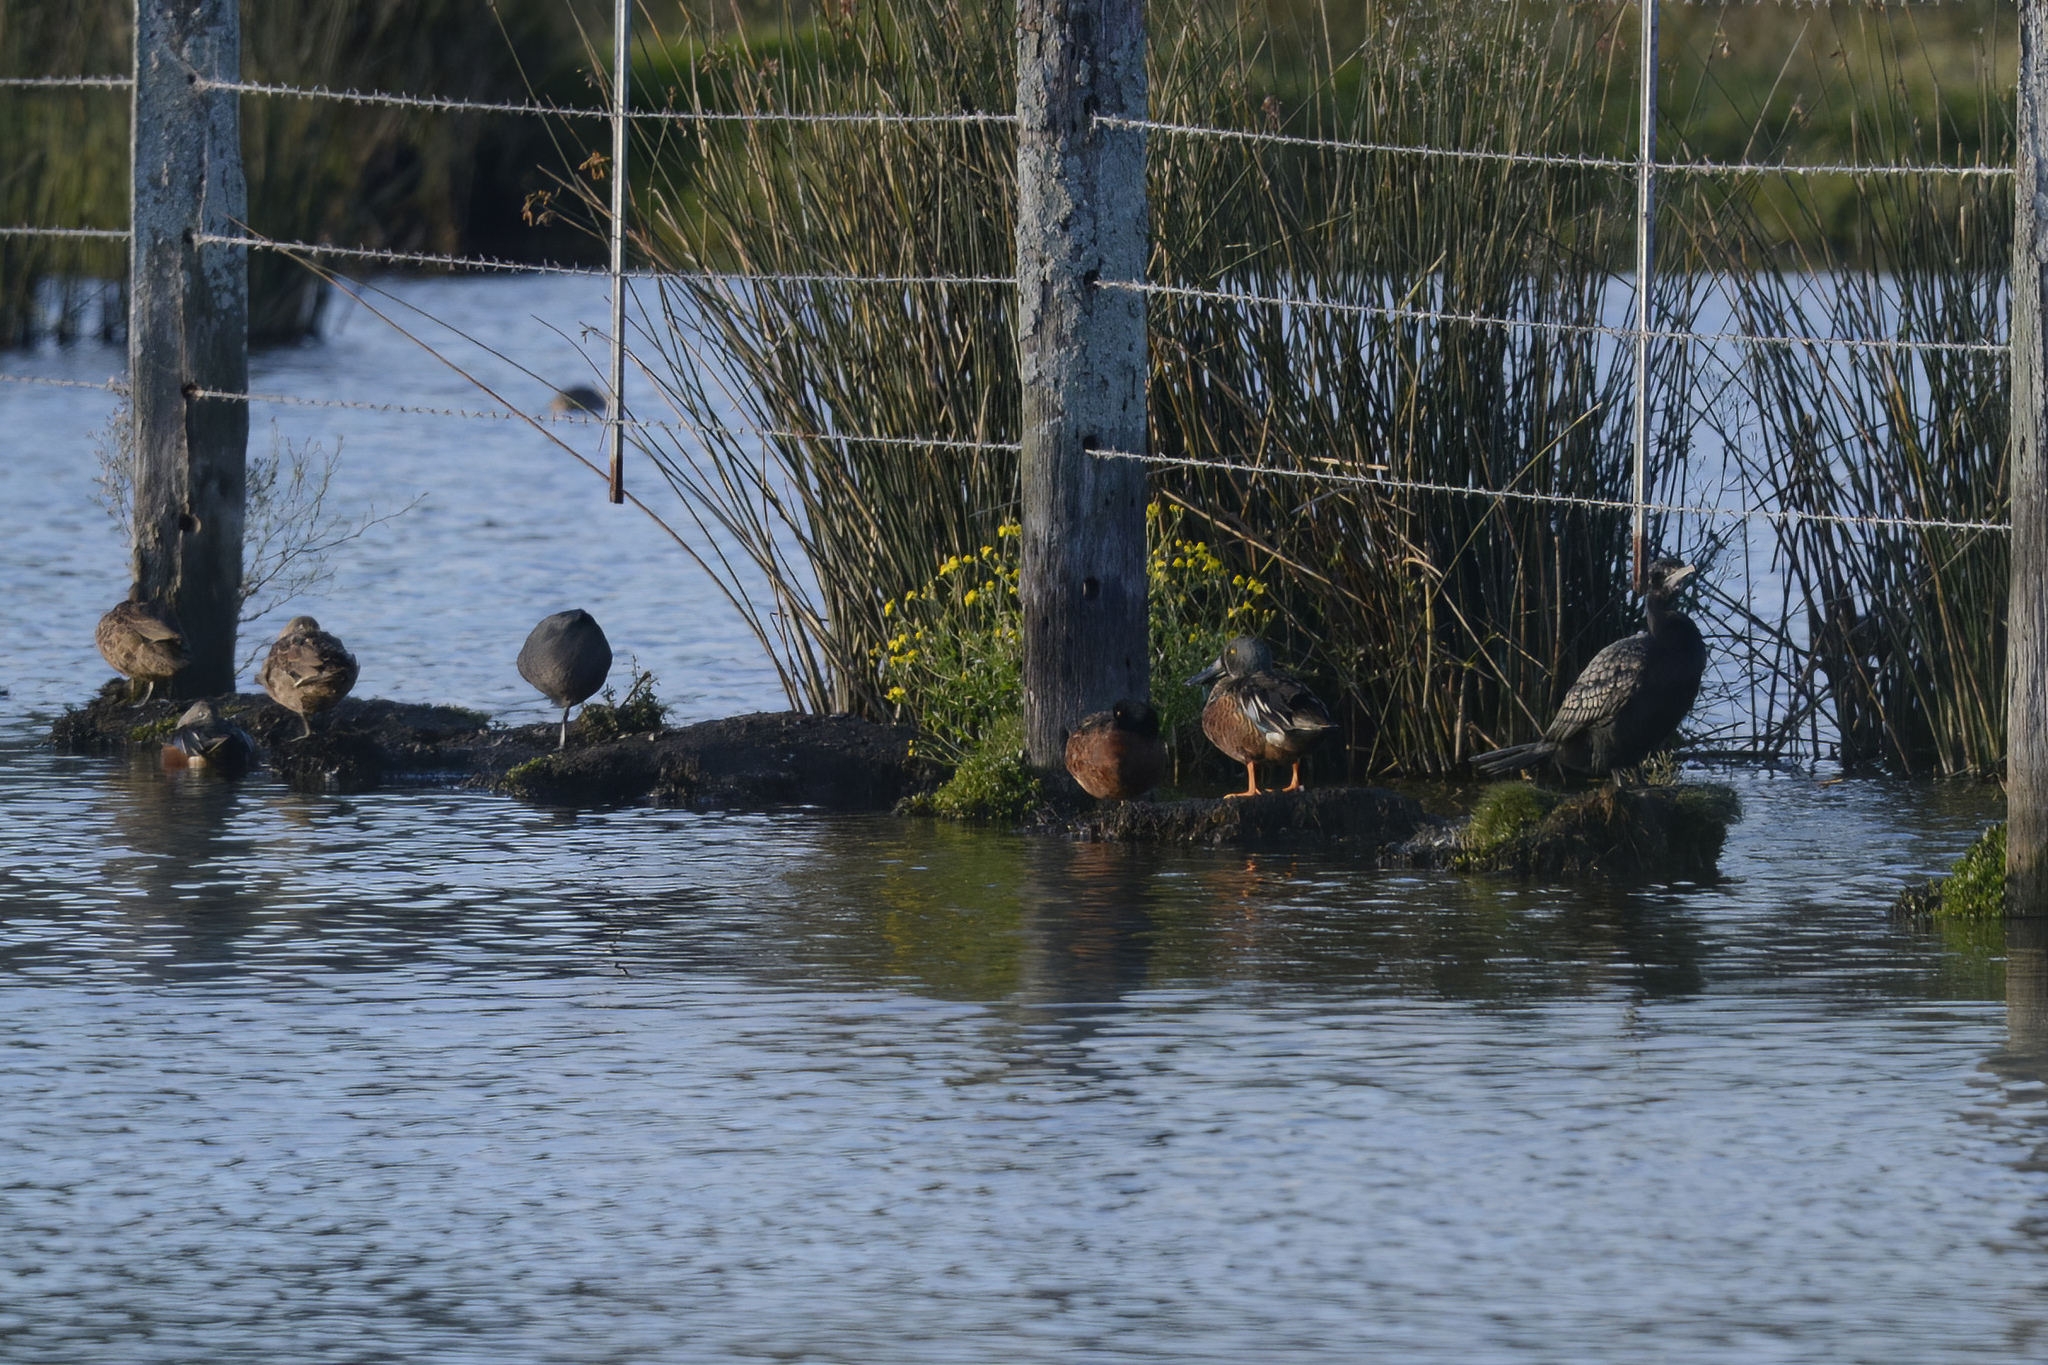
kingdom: Animalia
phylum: Chordata
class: Aves
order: Anseriformes
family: Anatidae
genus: Spatula
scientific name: Spatula rhynchotis
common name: Australian shoveler
